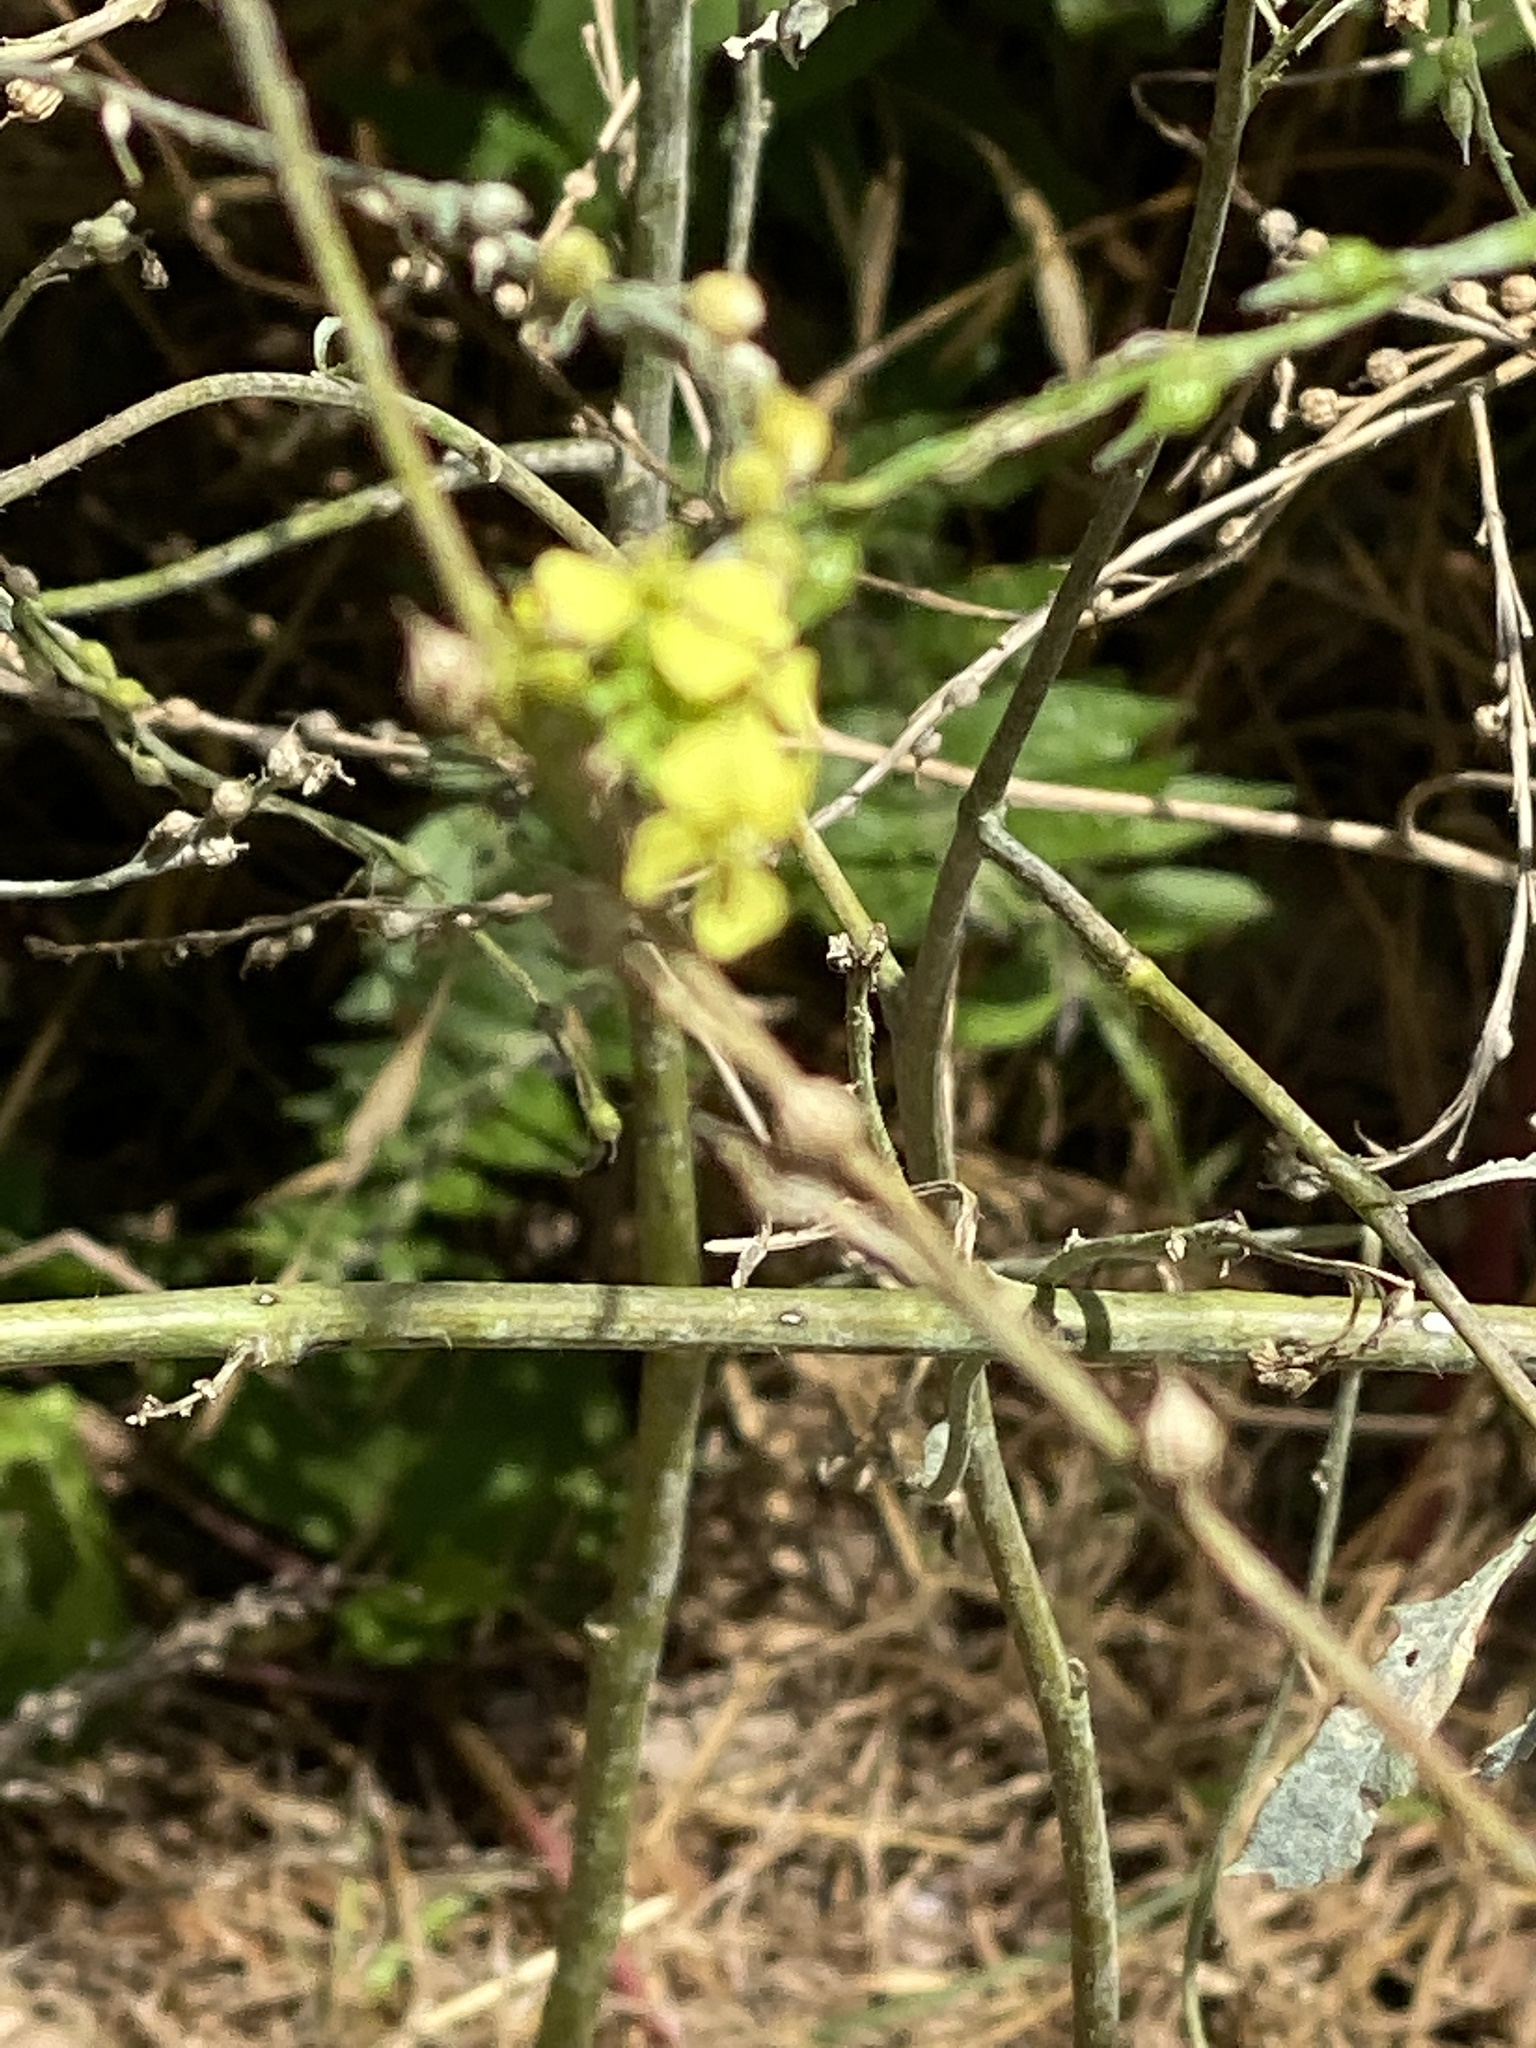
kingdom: Plantae
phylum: Tracheophyta
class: Magnoliopsida
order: Brassicales
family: Brassicaceae
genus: Rapistrum
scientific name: Rapistrum rugosum
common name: Annual bastardcabbage
